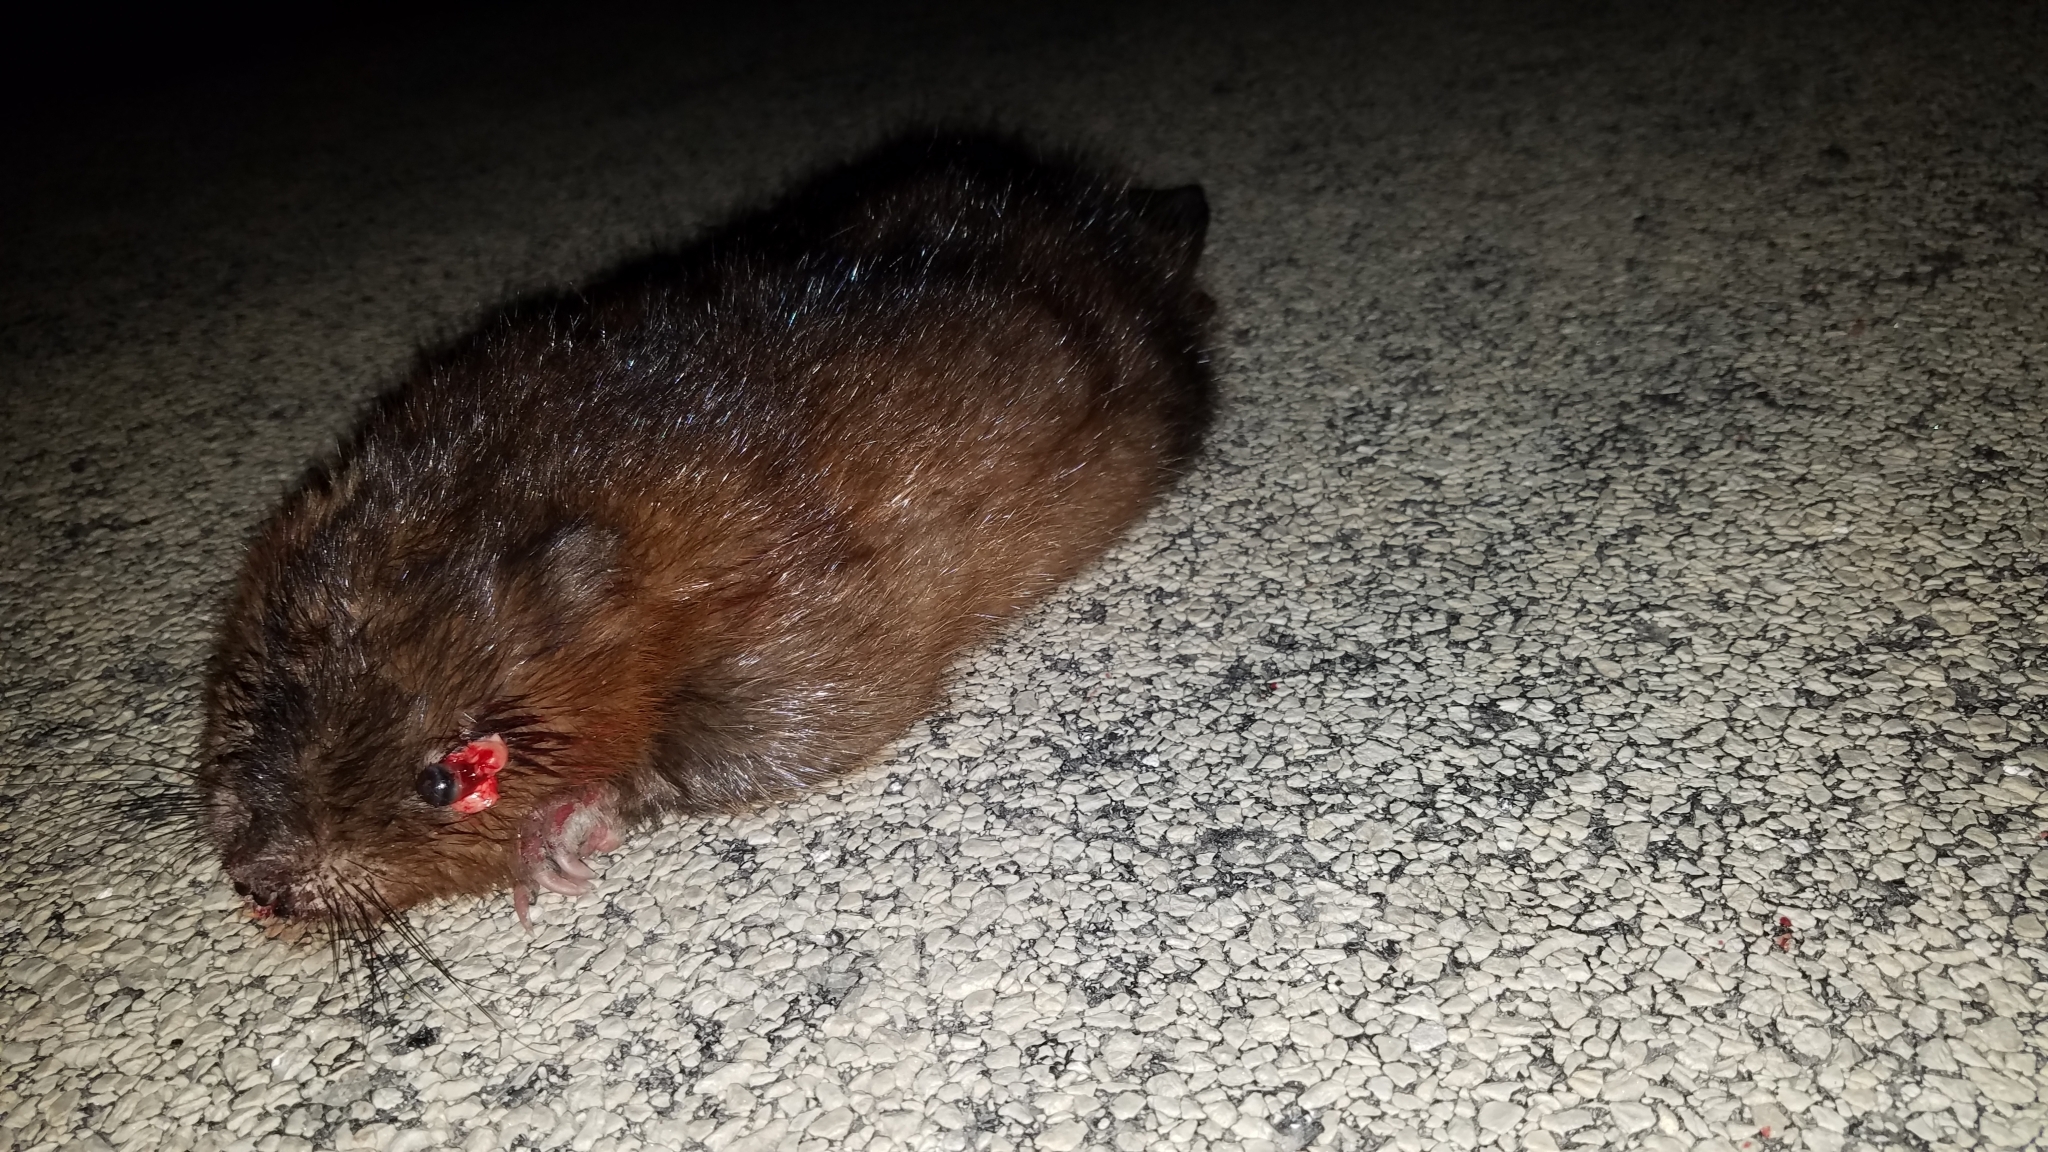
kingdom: Animalia
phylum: Chordata
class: Mammalia
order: Rodentia
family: Cricetidae
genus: Ondatra
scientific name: Ondatra zibethicus
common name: Muskrat
